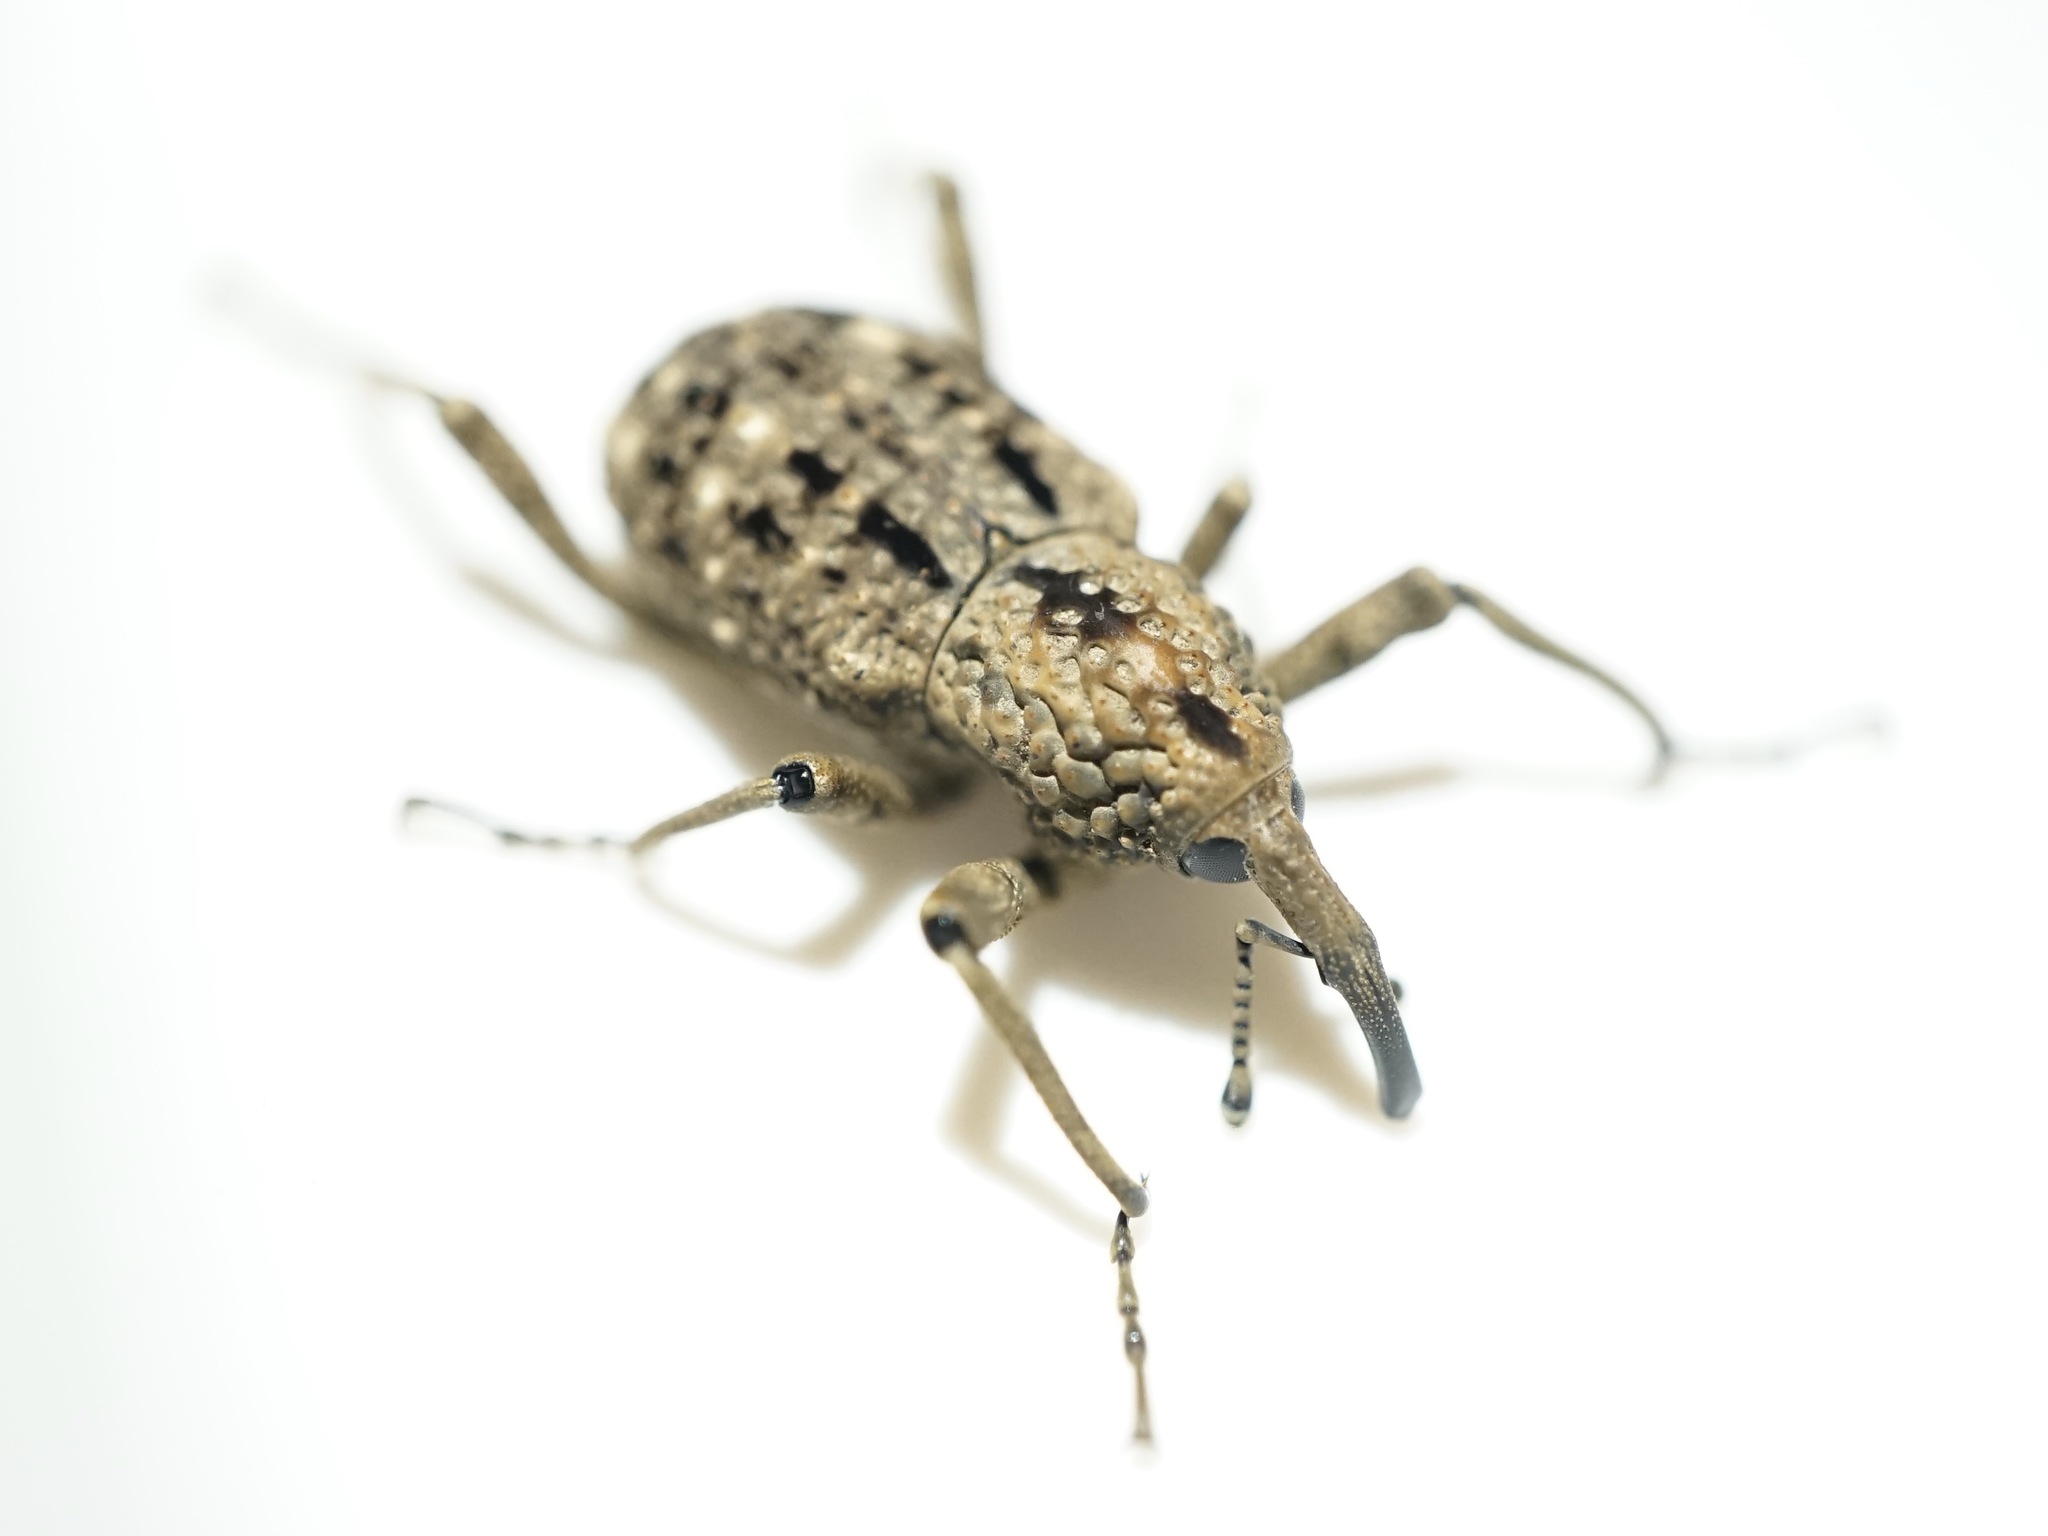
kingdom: Animalia
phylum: Arthropoda
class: Insecta
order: Coleoptera
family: Dryophthoridae
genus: Sipalinus
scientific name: Sipalinus gigas
